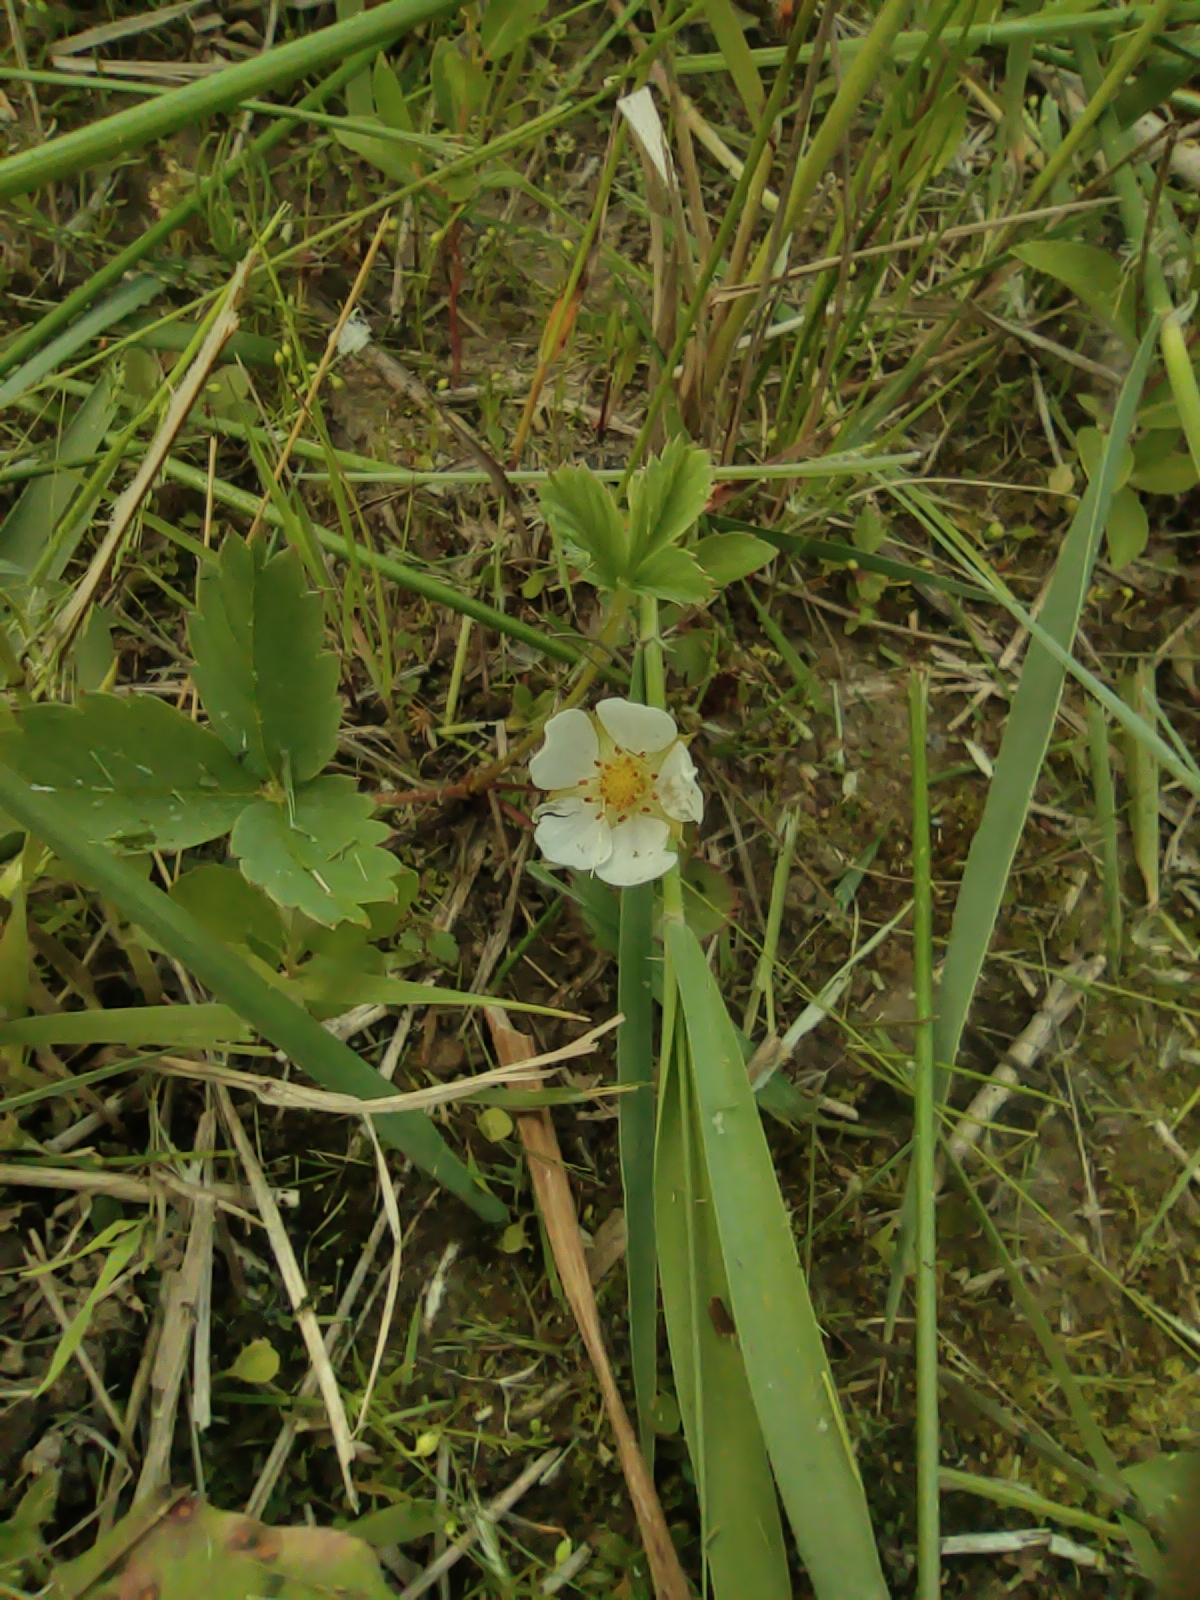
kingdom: Plantae
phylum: Tracheophyta
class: Magnoliopsida
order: Rosales
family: Rosaceae
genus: Fragaria
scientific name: Fragaria ananassa
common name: Garden strawberry
